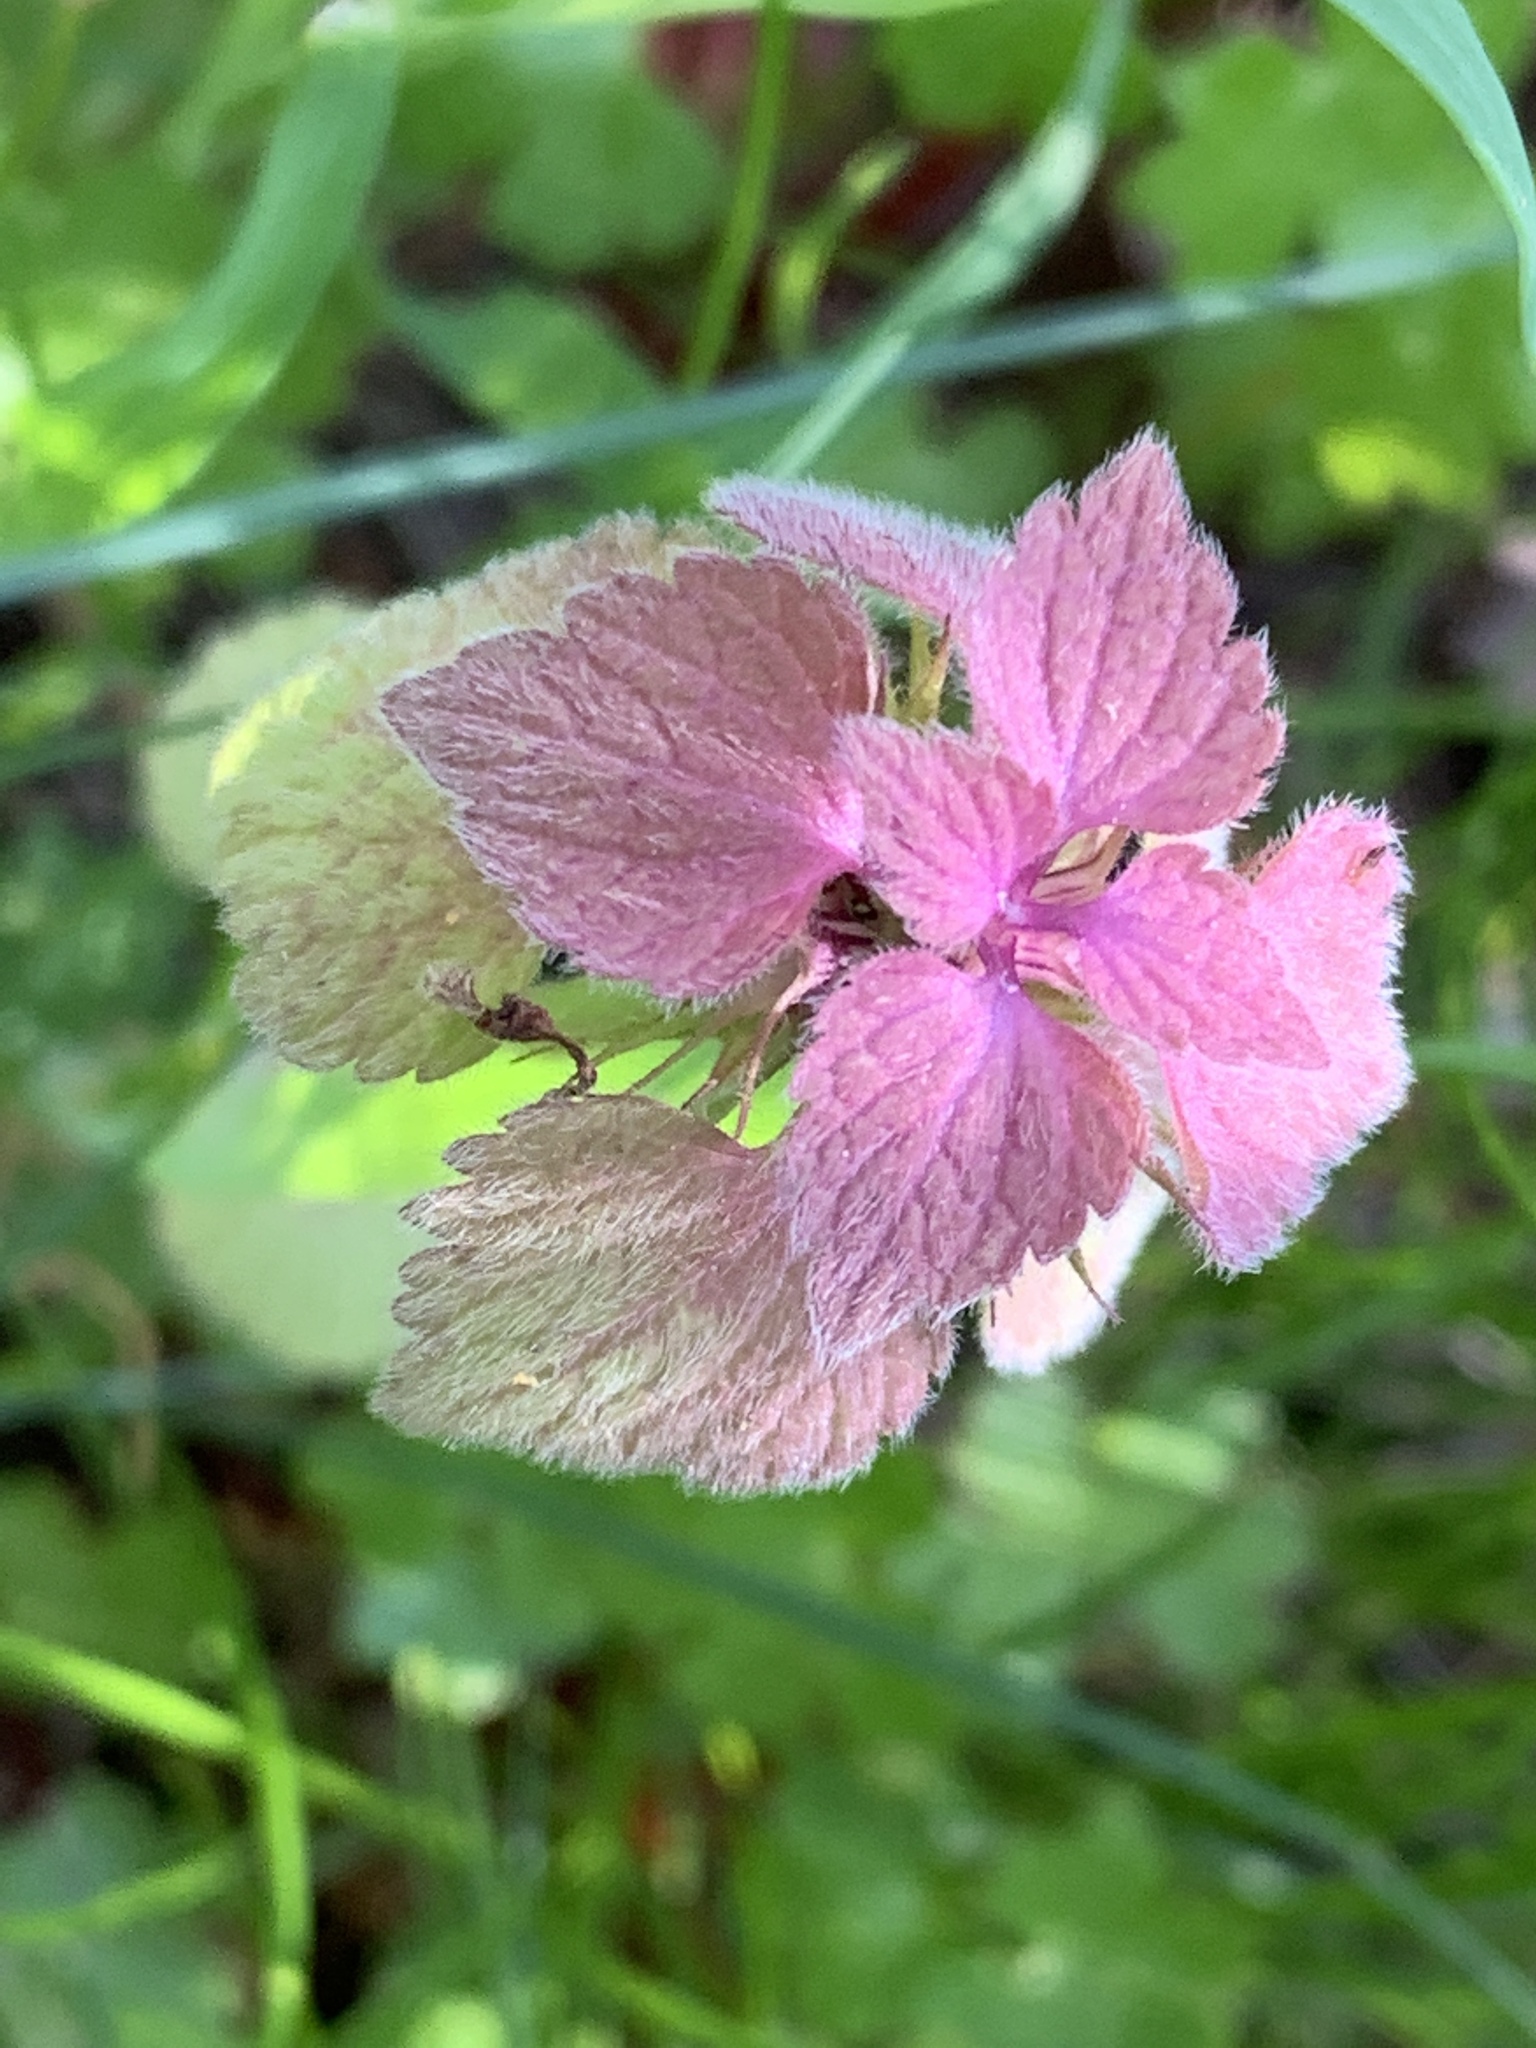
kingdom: Plantae
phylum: Tracheophyta
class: Magnoliopsida
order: Lamiales
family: Lamiaceae
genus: Lamium
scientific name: Lamium purpureum
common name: Red dead-nettle
